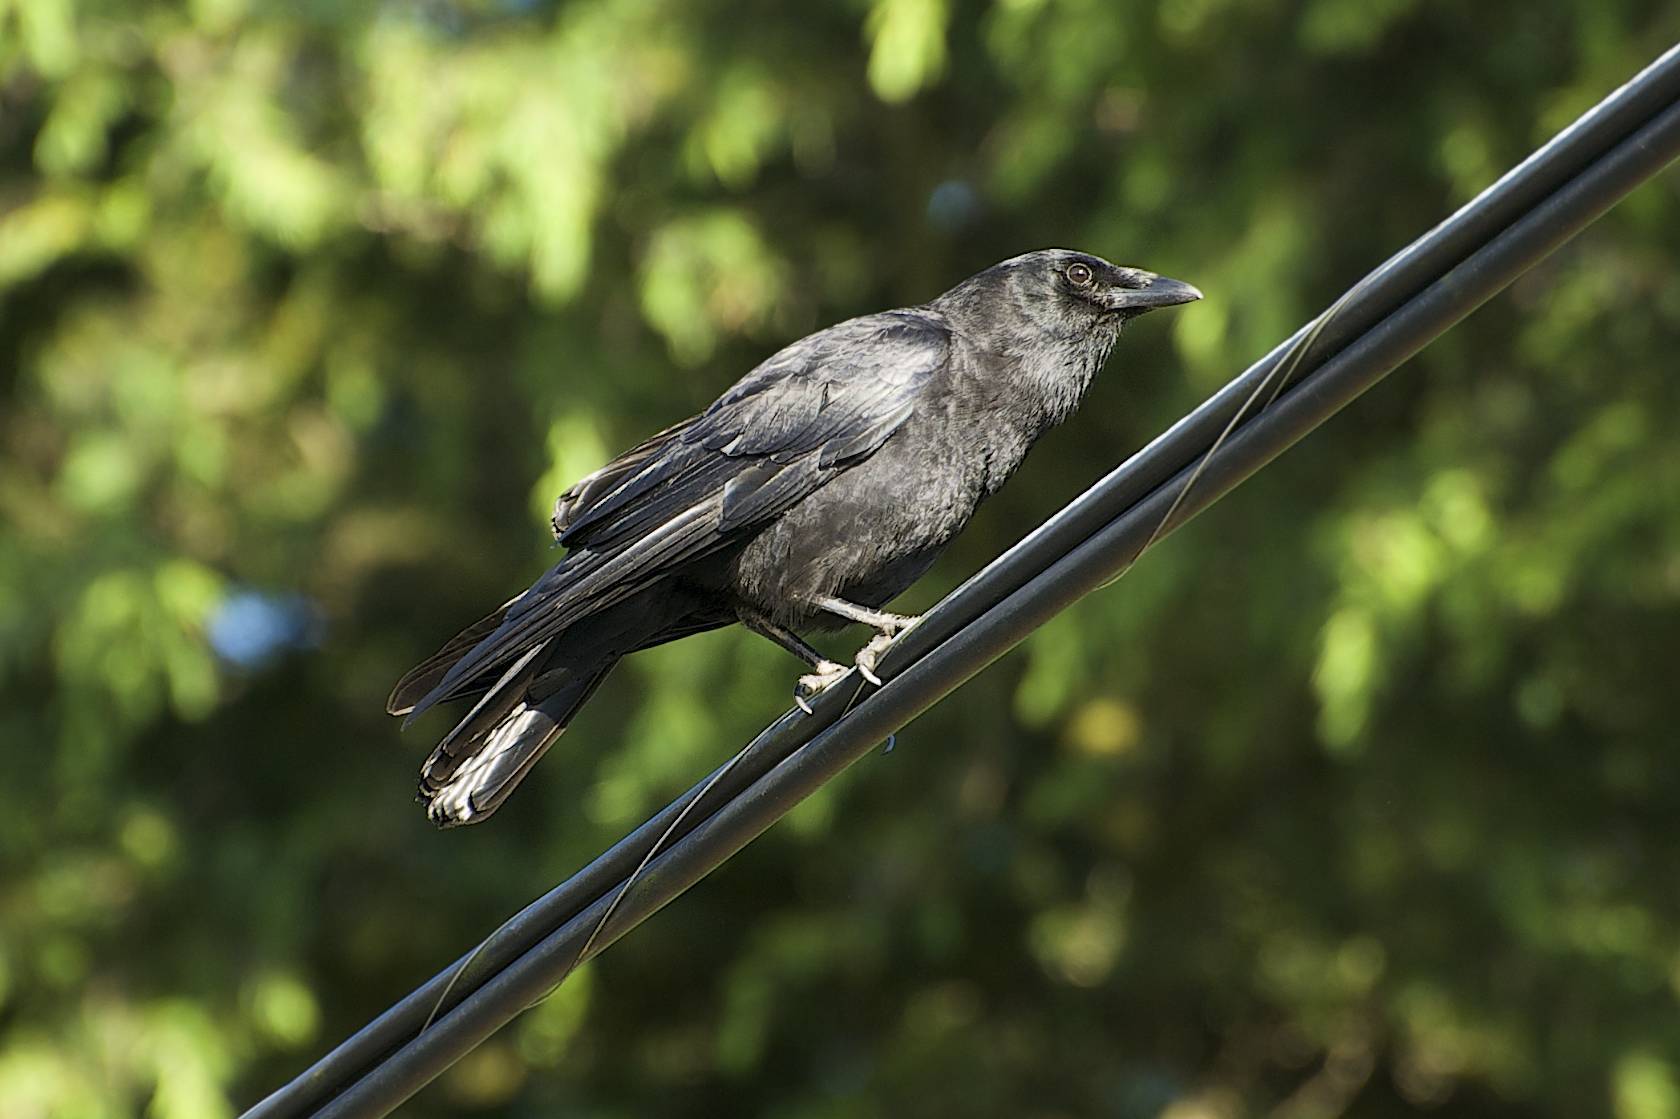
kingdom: Animalia
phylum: Chordata
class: Aves
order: Passeriformes
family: Corvidae
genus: Corvus
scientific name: Corvus brachyrhynchos
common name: American crow
